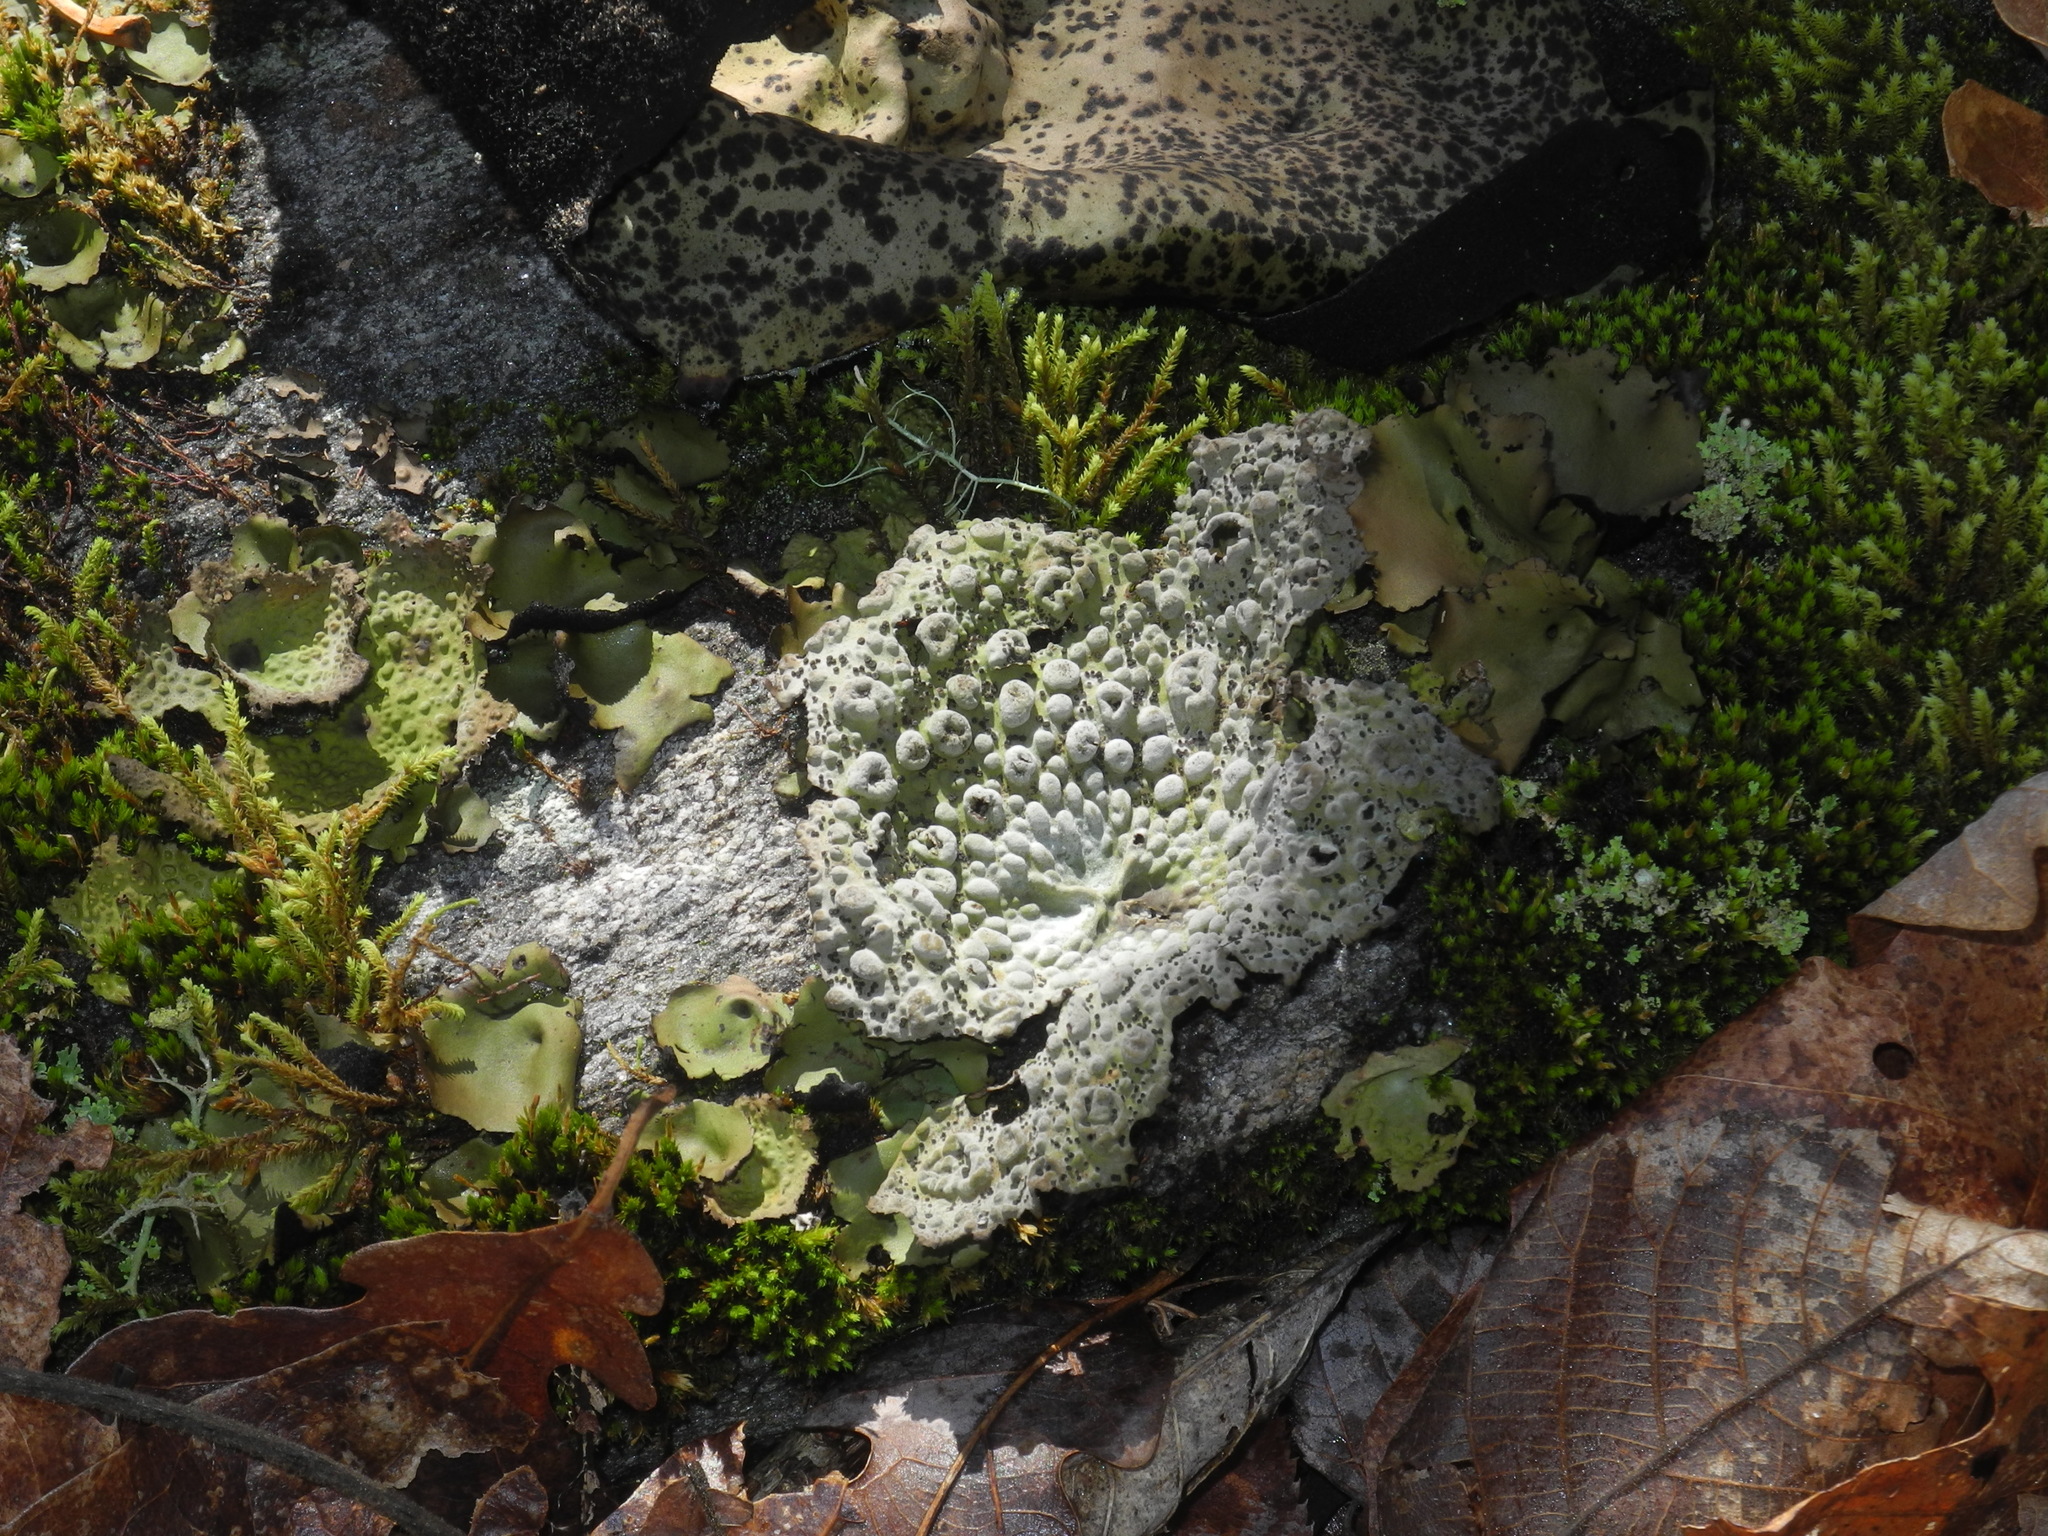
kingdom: Fungi
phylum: Ascomycota
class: Lecanoromycetes
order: Umbilicariales
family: Umbilicariaceae
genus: Lasallia
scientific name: Lasallia papulosa
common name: Common toadskin lichen
